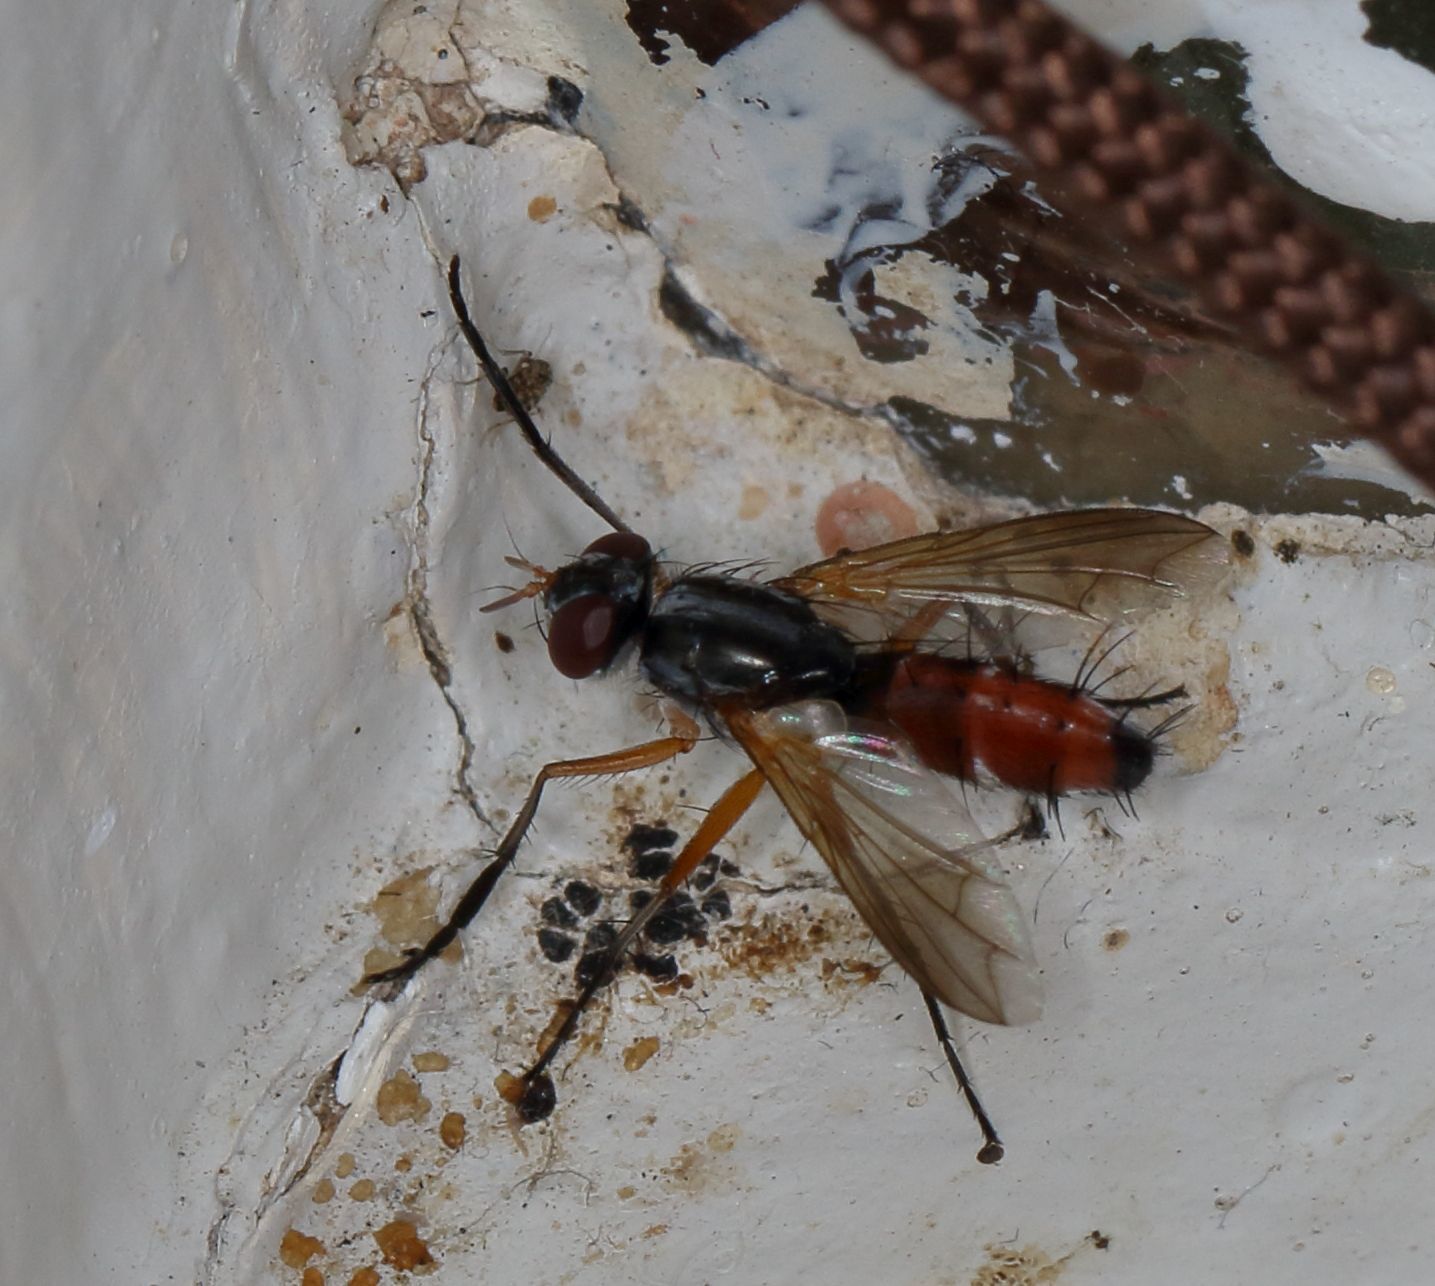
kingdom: Animalia
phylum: Arthropoda
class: Insecta
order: Diptera
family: Tachinidae
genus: Mintho
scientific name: Mintho flavicoxa
